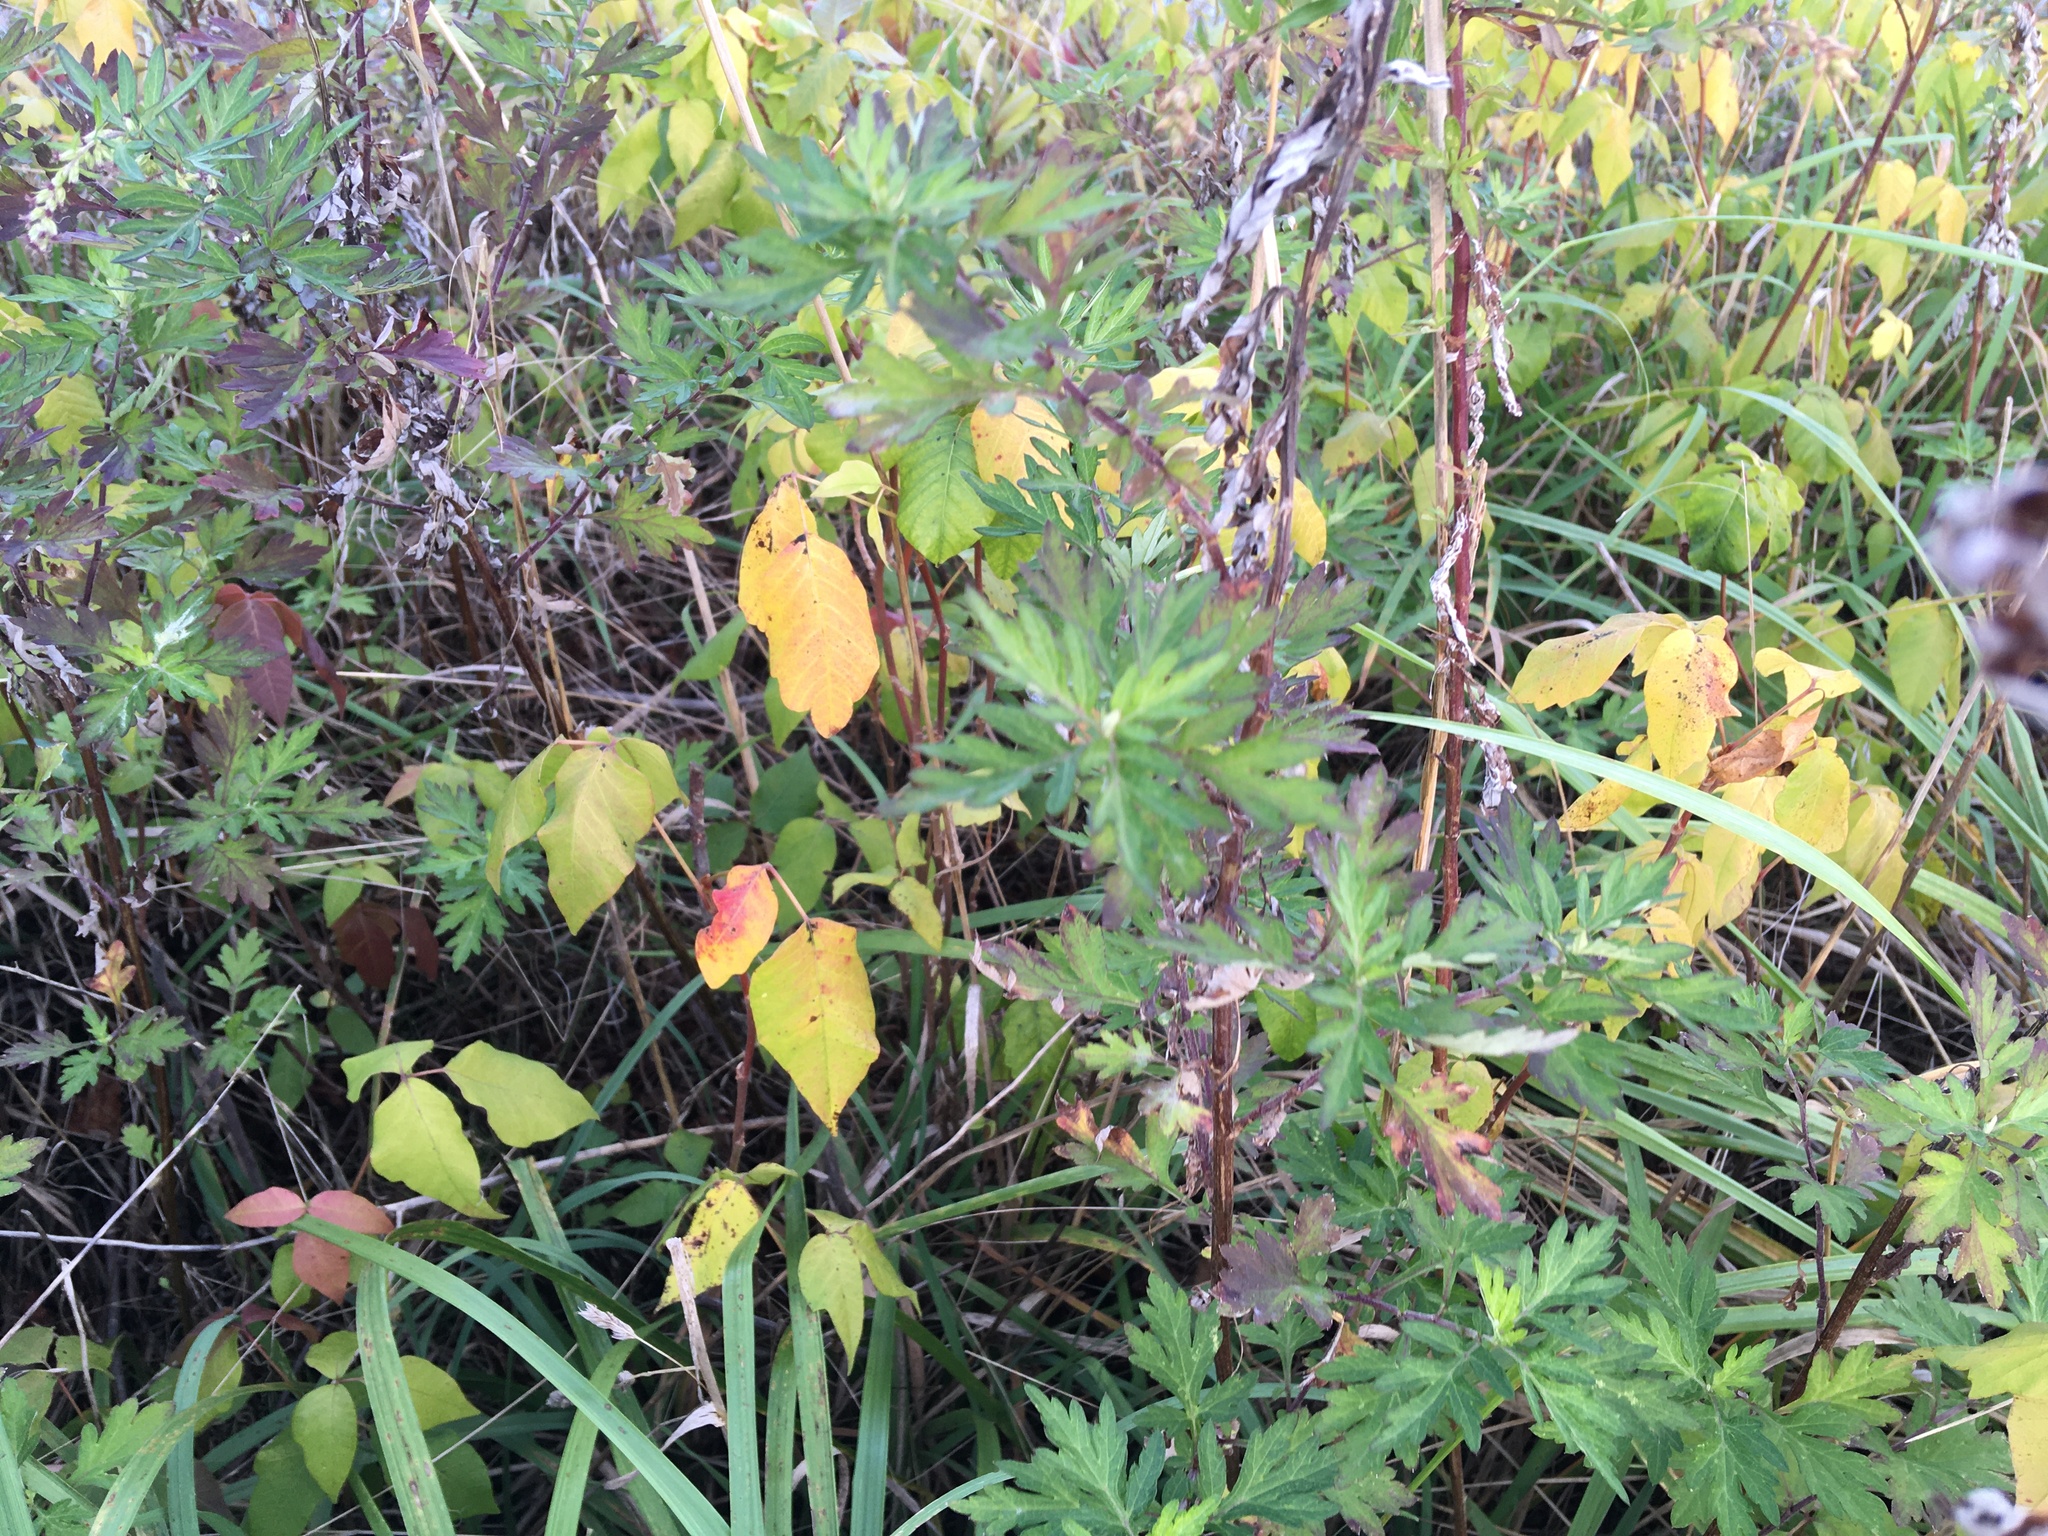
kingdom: Plantae
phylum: Tracheophyta
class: Magnoliopsida
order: Asterales
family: Asteraceae
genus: Artemisia
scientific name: Artemisia vulgaris
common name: Mugwort
